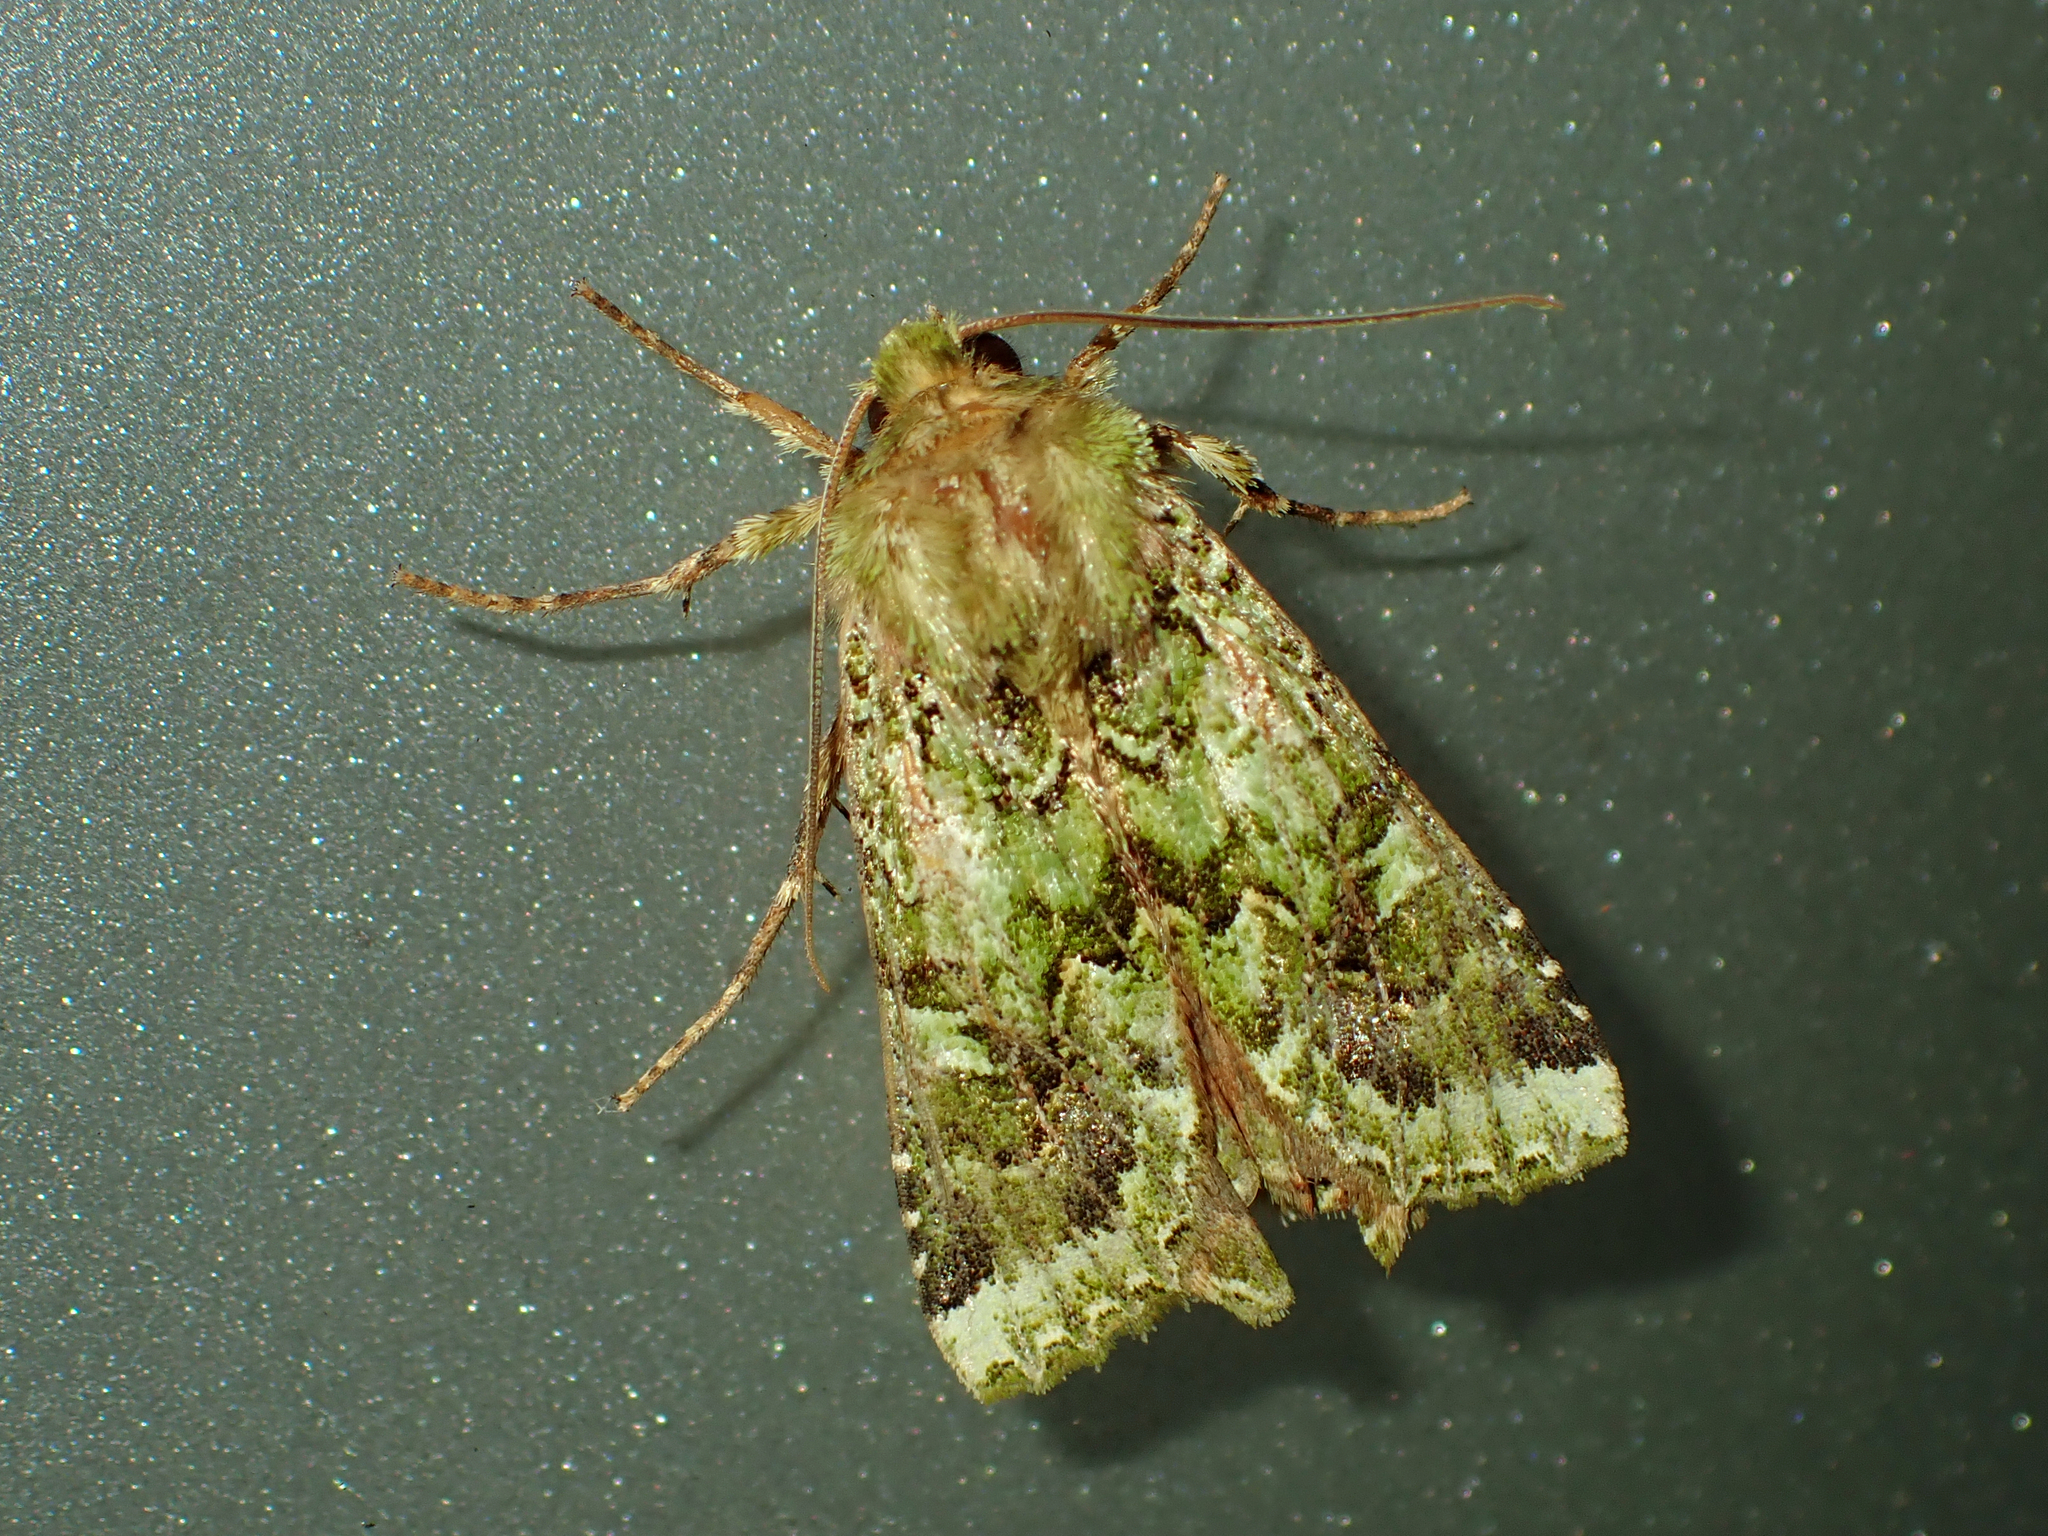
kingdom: Animalia
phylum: Arthropoda
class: Insecta
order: Lepidoptera
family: Noctuidae
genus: Feredayia
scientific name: Feredayia grammosa
